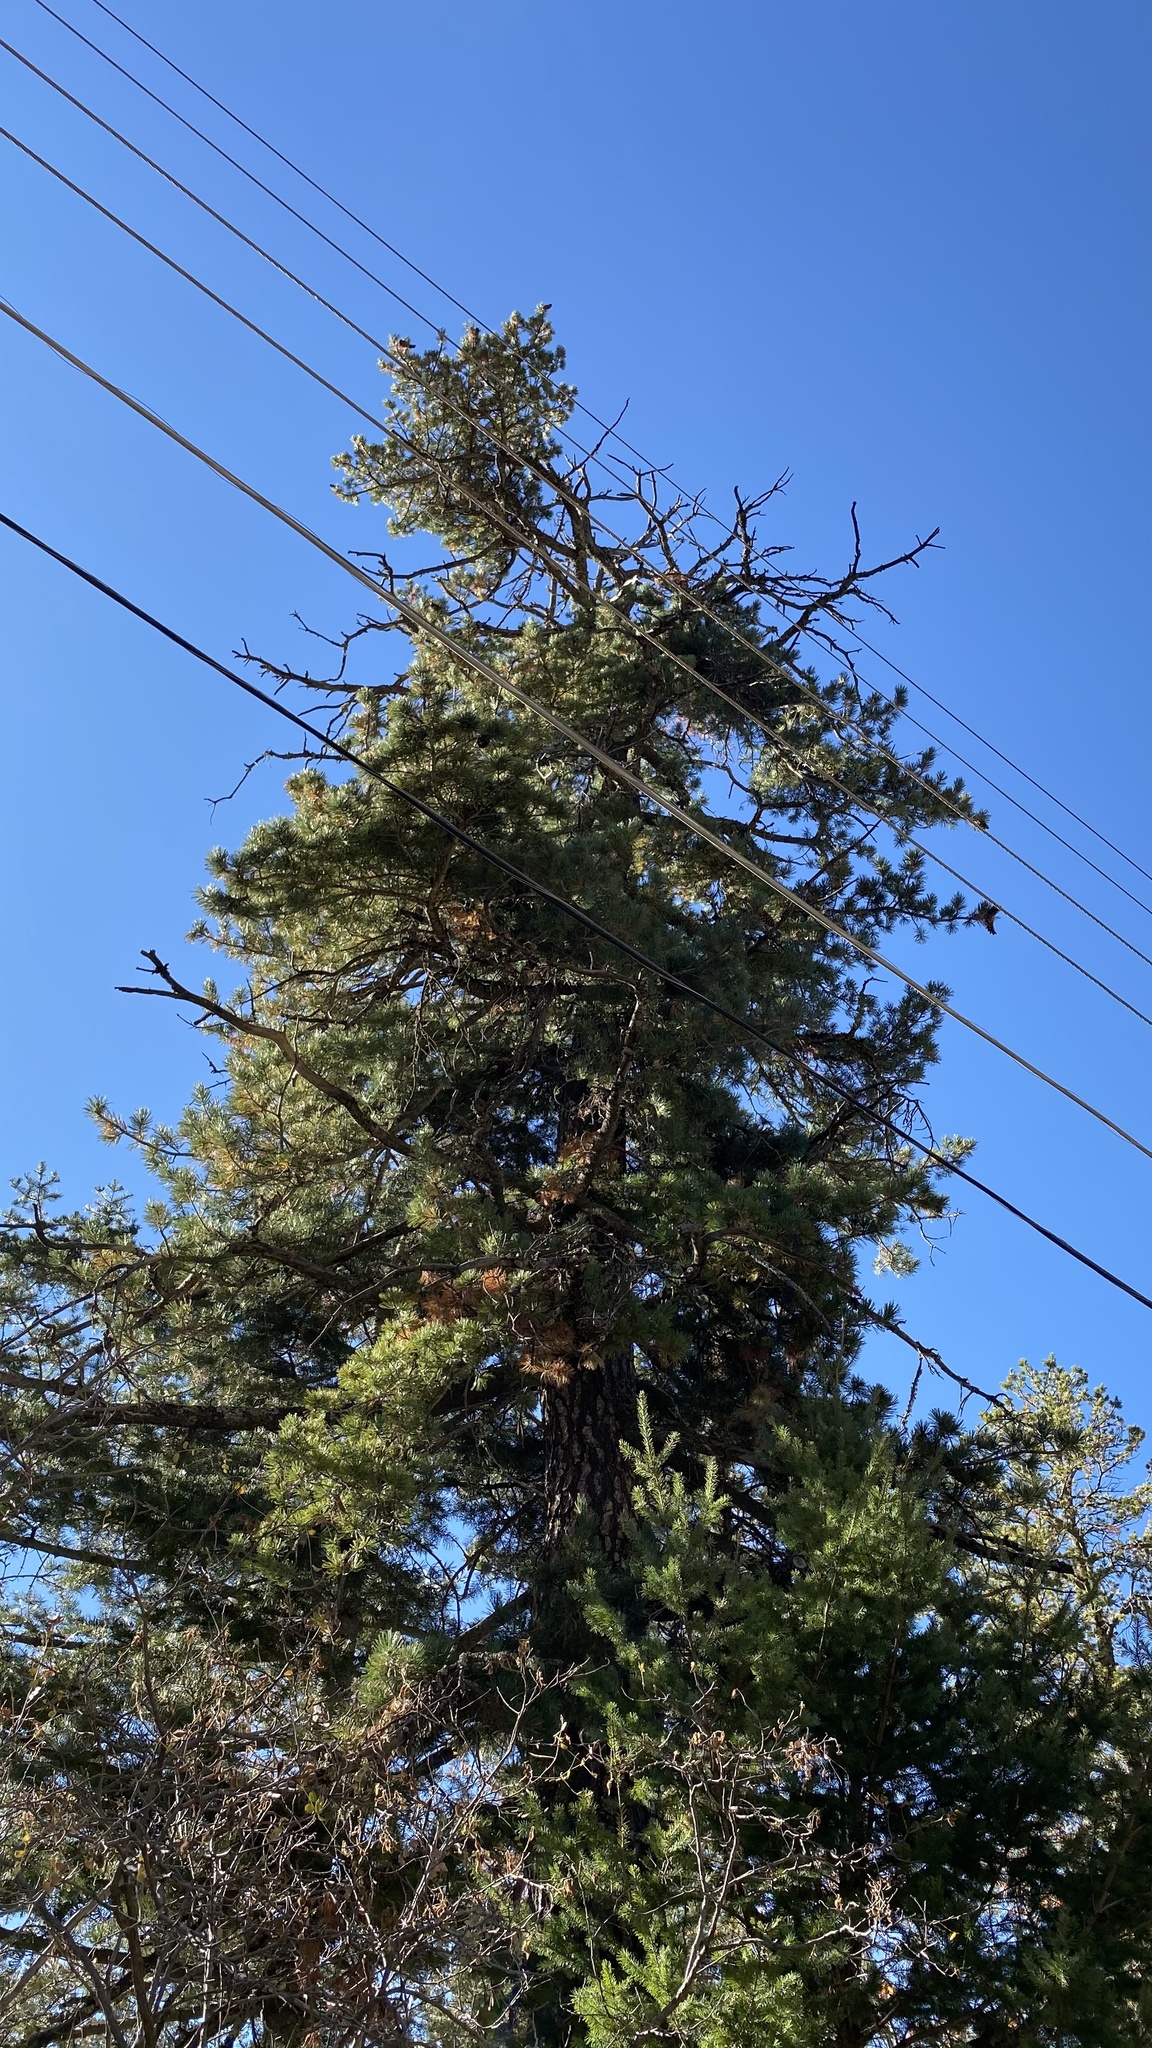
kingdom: Plantae
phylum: Tracheophyta
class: Pinopsida
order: Pinales
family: Pinaceae
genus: Pinus
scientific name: Pinus strobiformis
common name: Southwestern white pine
